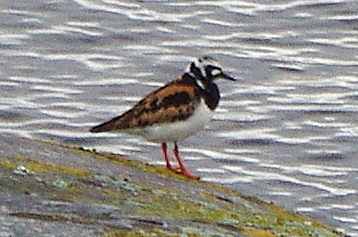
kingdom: Animalia
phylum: Chordata
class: Aves
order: Charadriiformes
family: Scolopacidae
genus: Arenaria
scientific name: Arenaria interpres
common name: Ruddy turnstone
